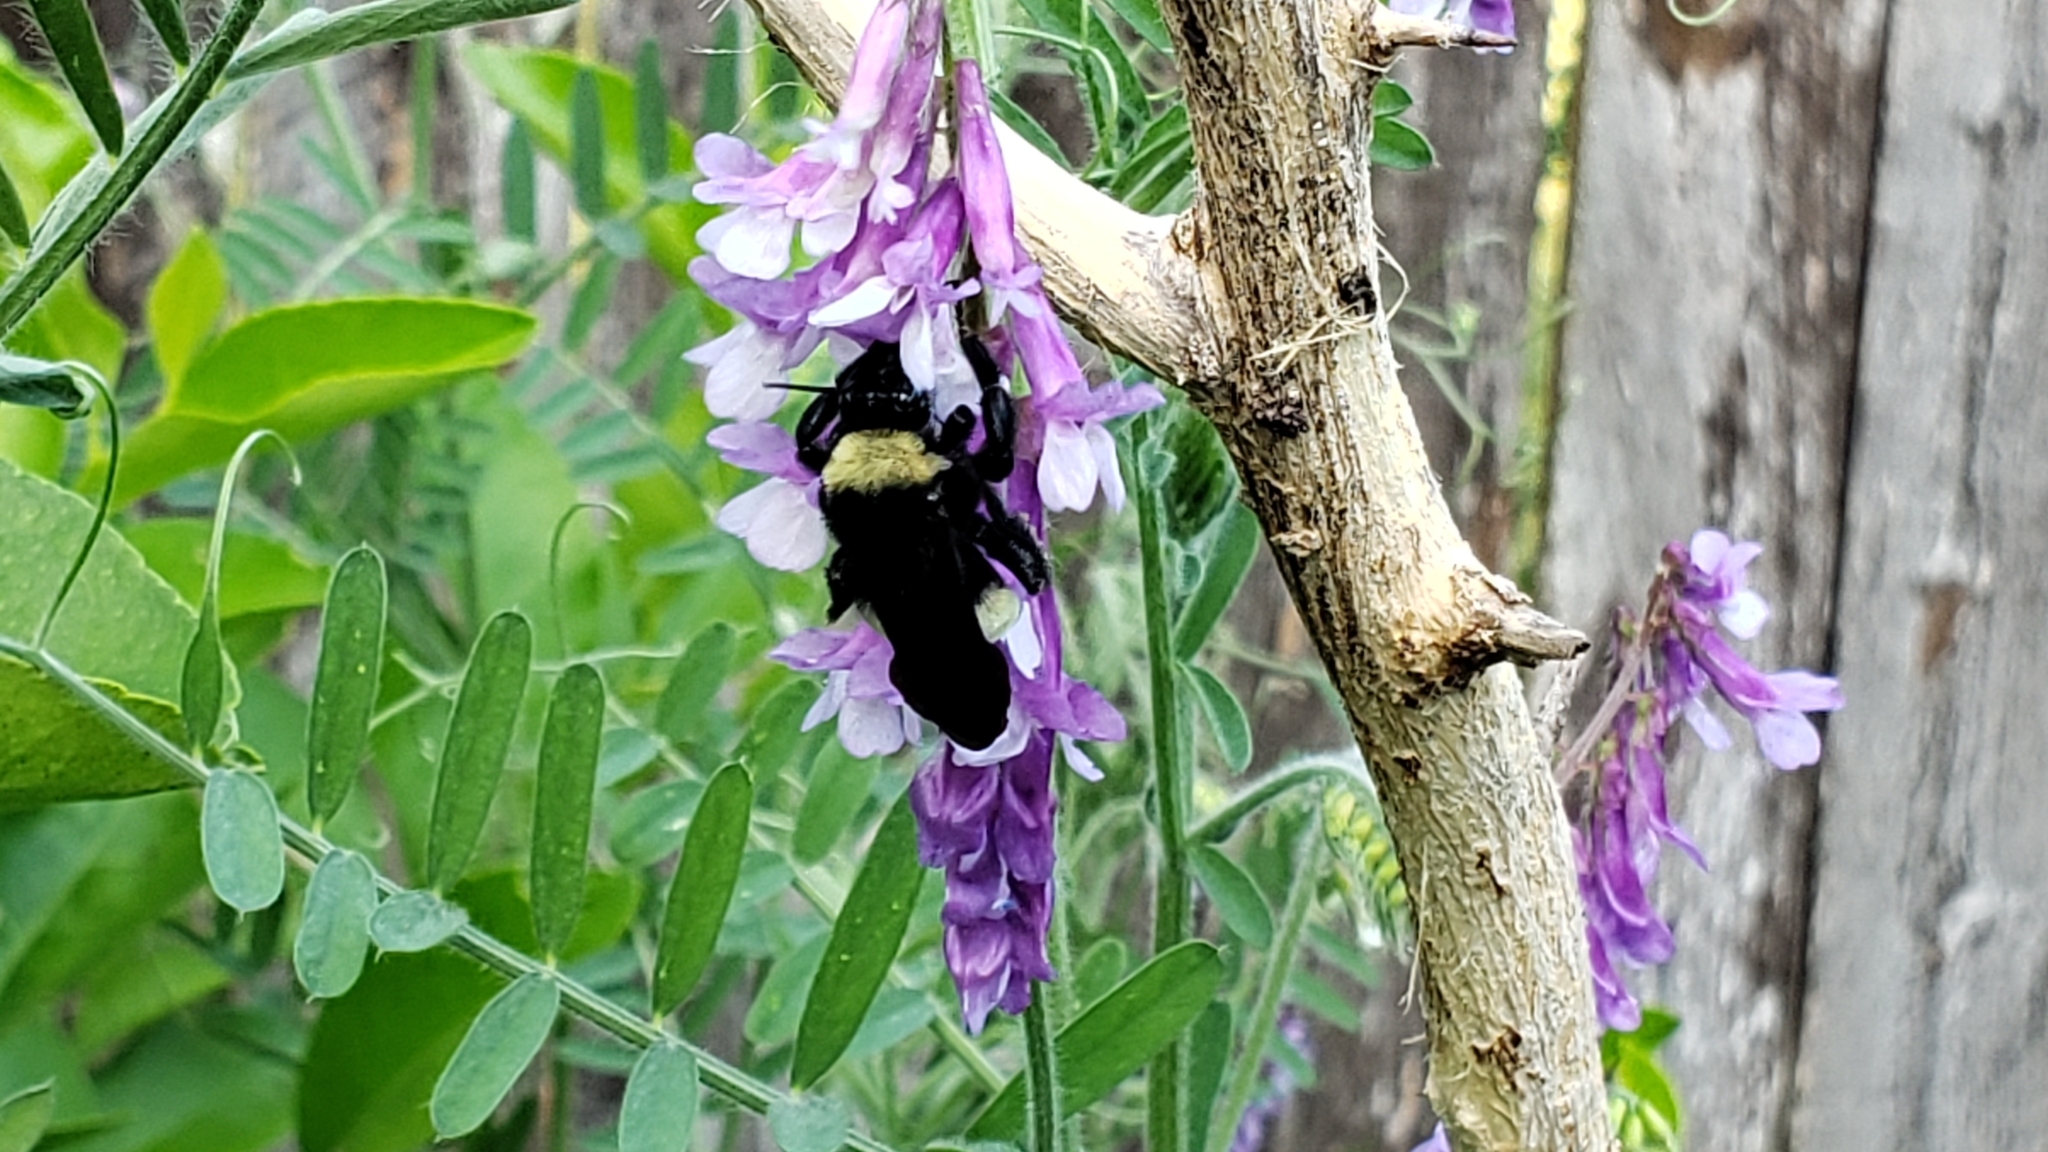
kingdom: Animalia
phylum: Arthropoda
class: Insecta
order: Hymenoptera
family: Apidae
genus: Bombus
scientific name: Bombus pensylvanicus
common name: Bumble bee
